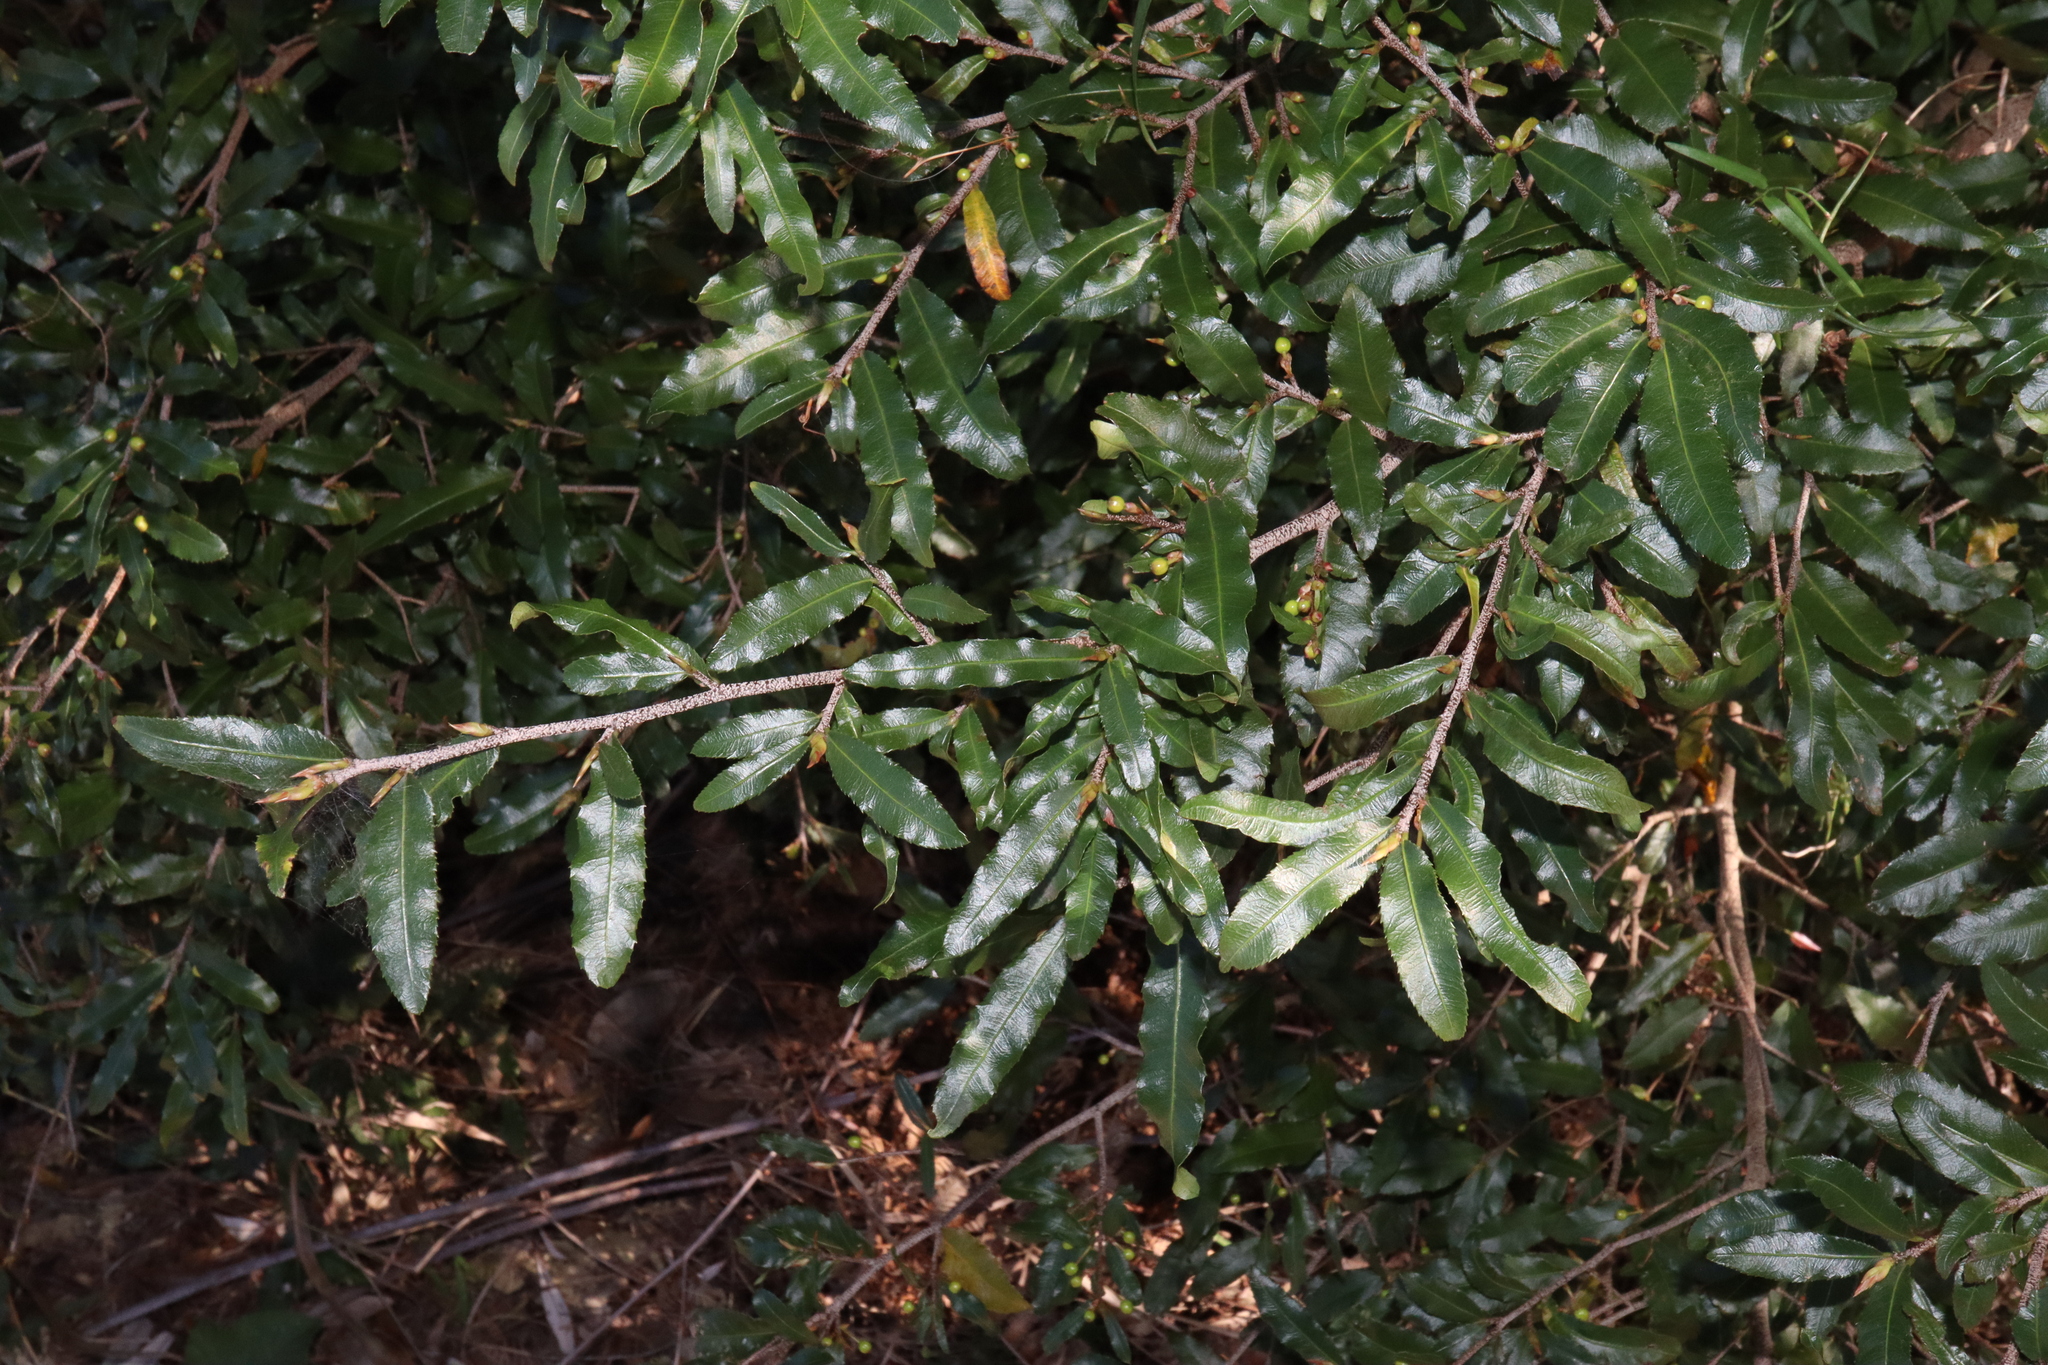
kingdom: Plantae
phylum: Tracheophyta
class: Magnoliopsida
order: Malpighiales
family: Ochnaceae
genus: Ochna
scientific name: Ochna serrulata
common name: Mickey mouse plant
